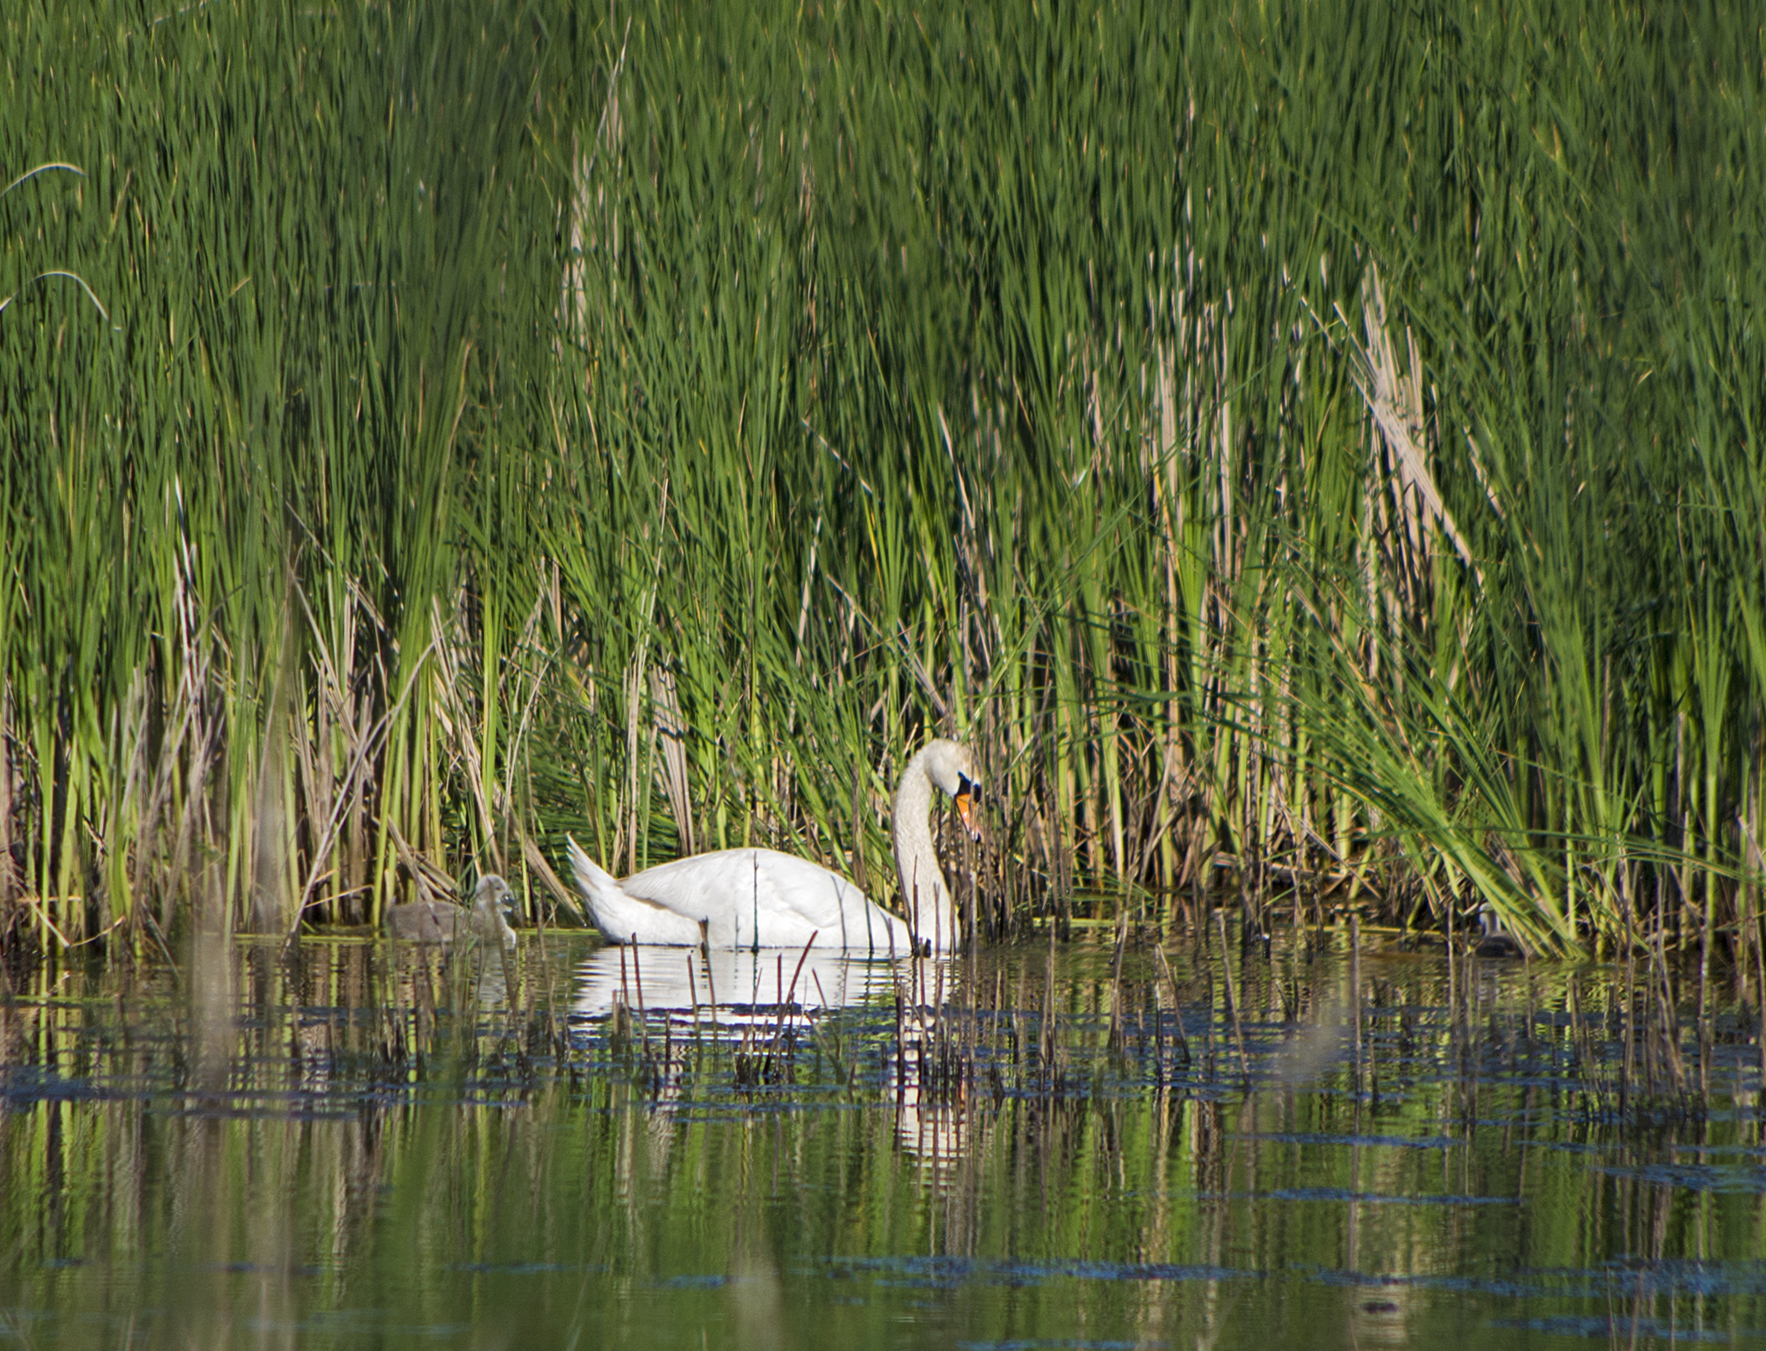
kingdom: Animalia
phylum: Chordata
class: Aves
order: Anseriformes
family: Anatidae
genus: Cygnus
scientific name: Cygnus olor
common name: Mute swan
